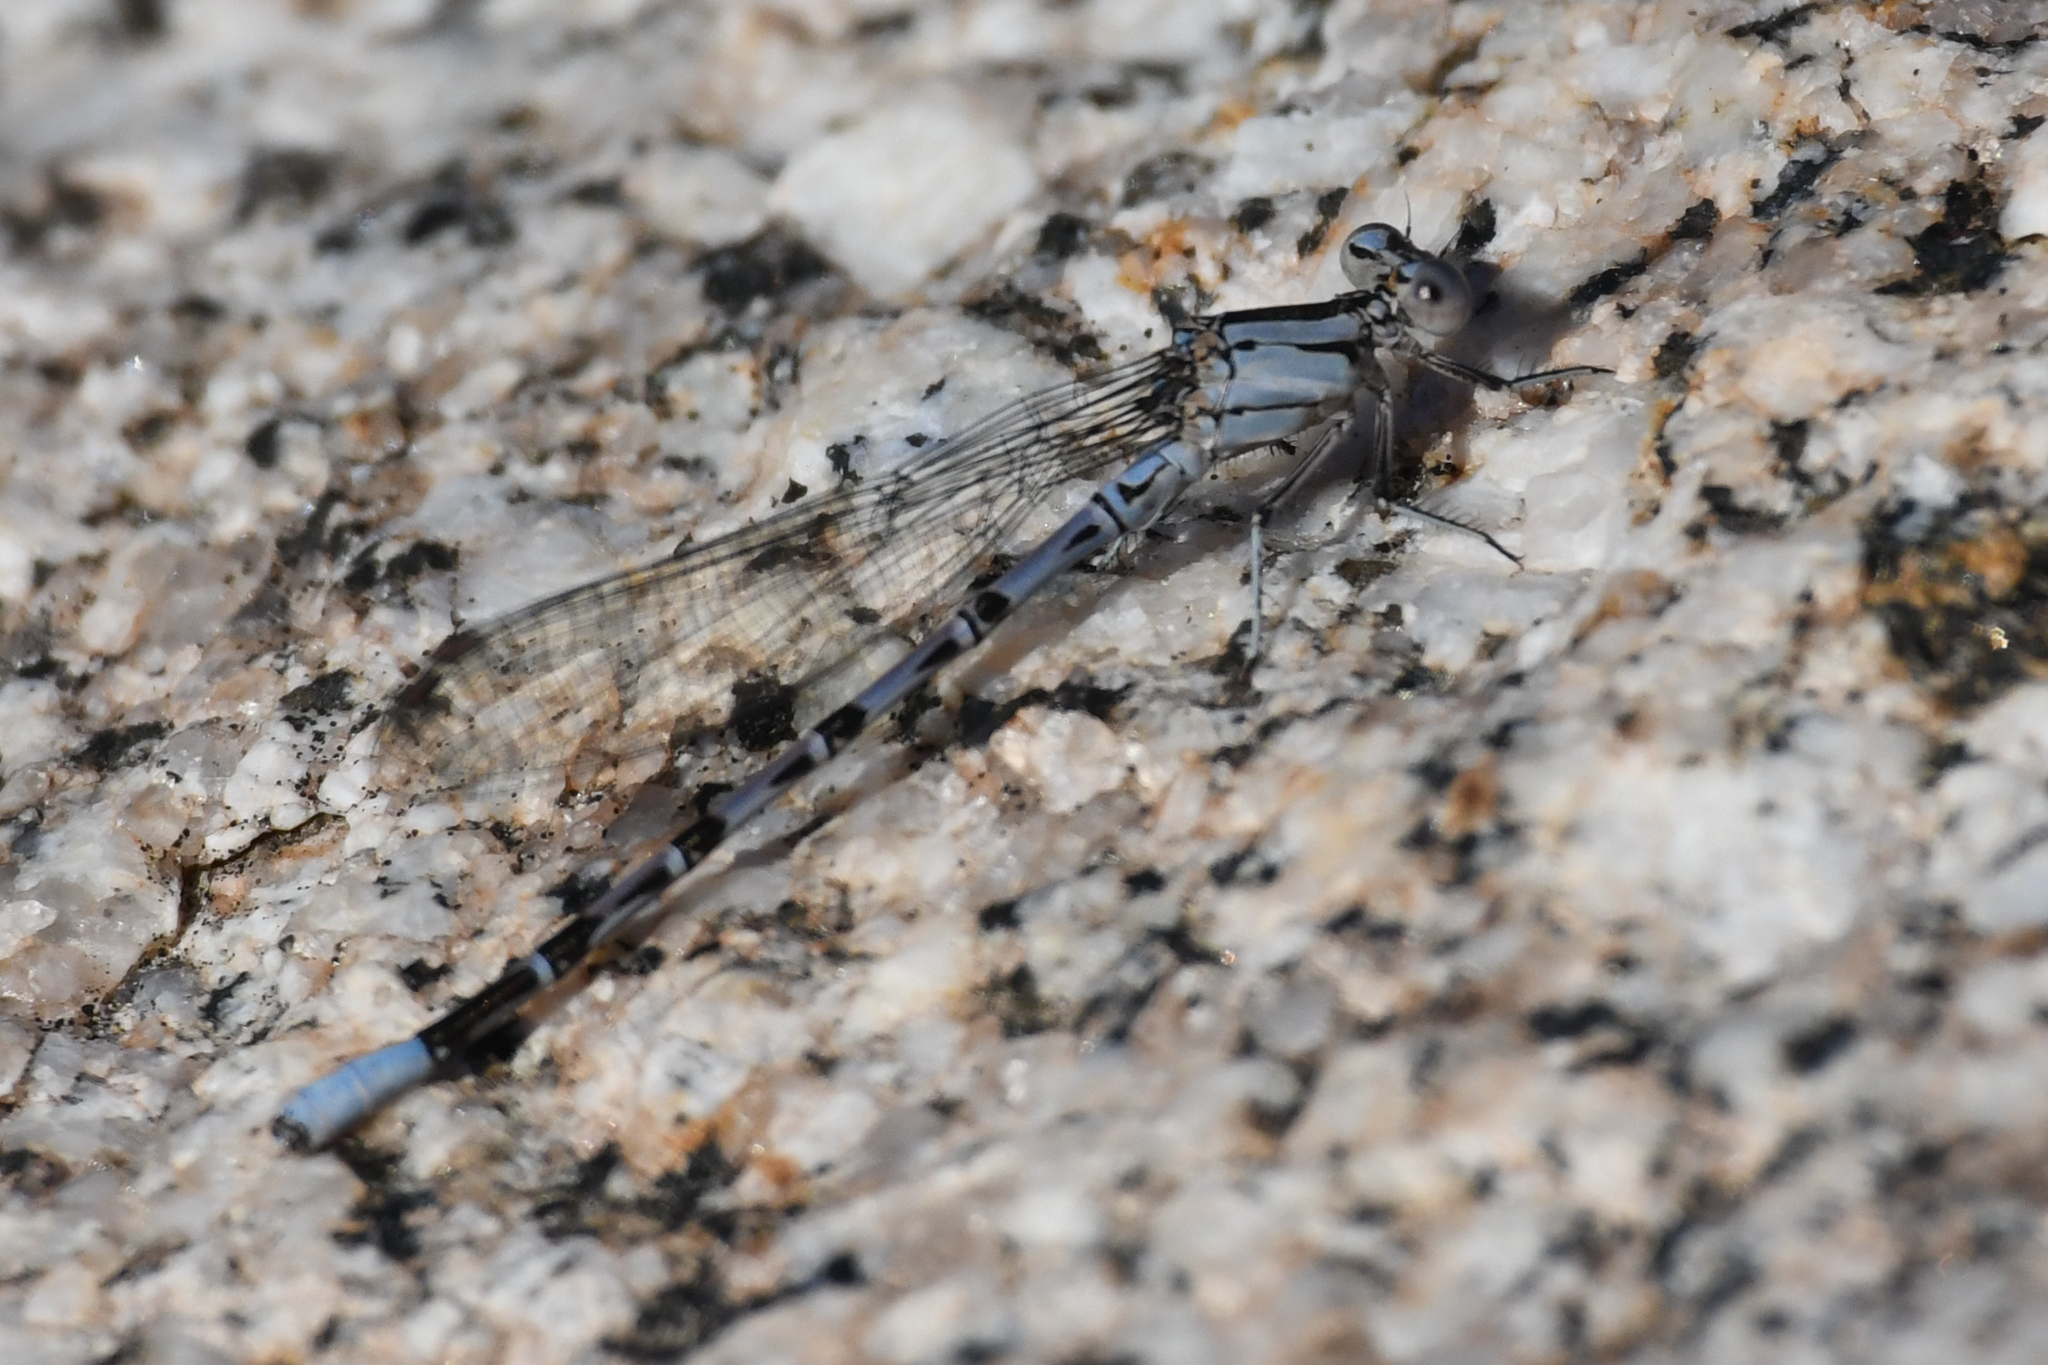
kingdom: Animalia
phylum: Arthropoda
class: Insecta
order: Odonata
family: Coenagrionidae
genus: Argia
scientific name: Argia vivida
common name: Vivid dancer
